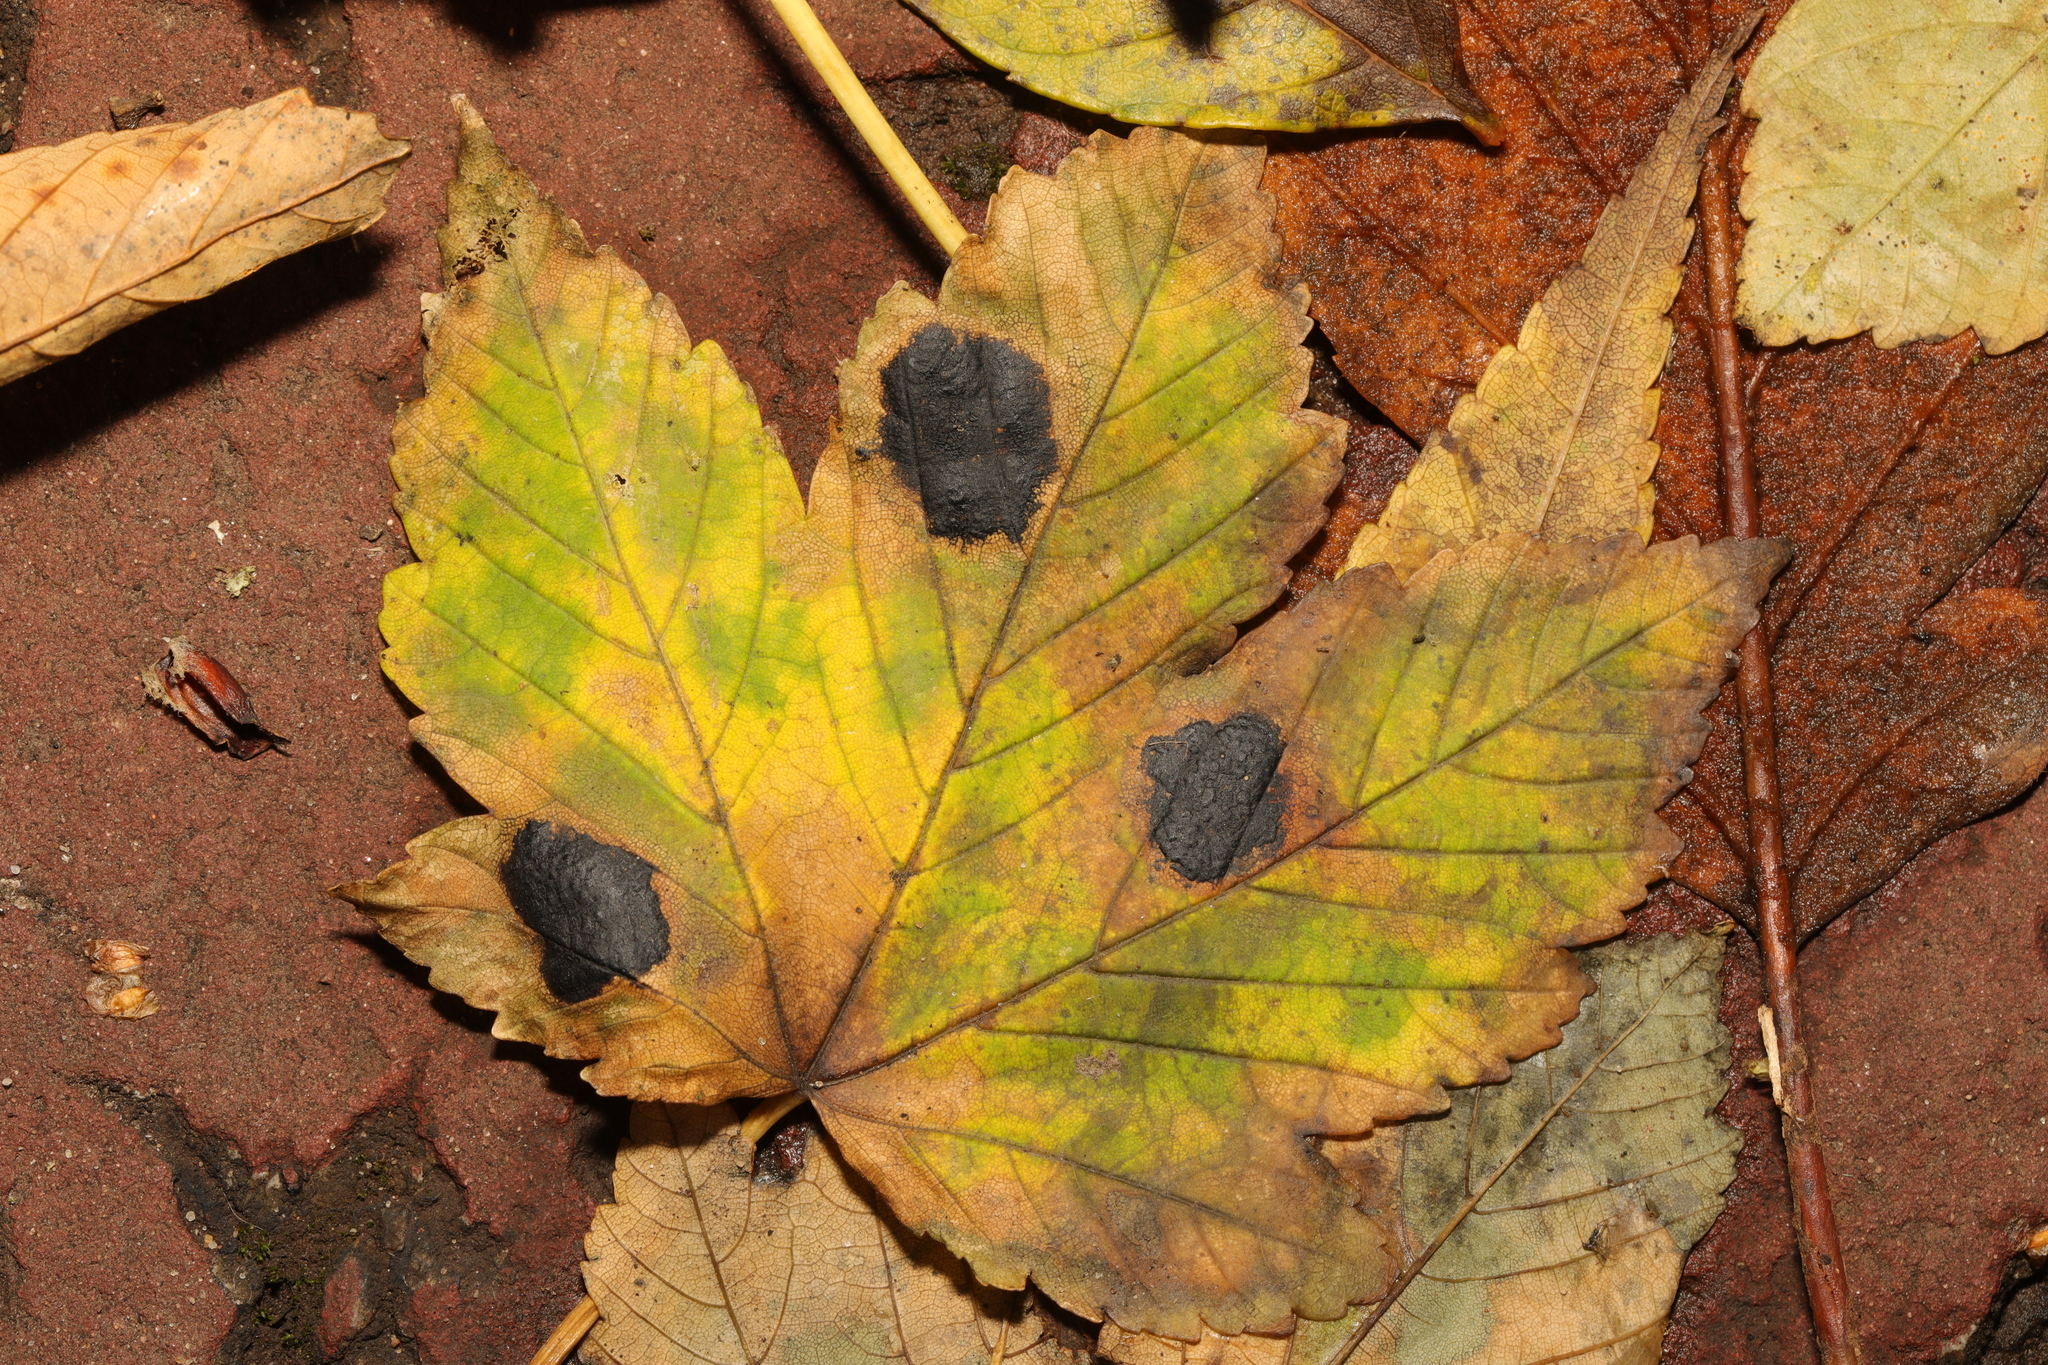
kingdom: Fungi
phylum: Ascomycota
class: Leotiomycetes
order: Rhytismatales
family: Rhytismataceae
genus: Rhytisma
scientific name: Rhytisma acerinum
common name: European tar spot
